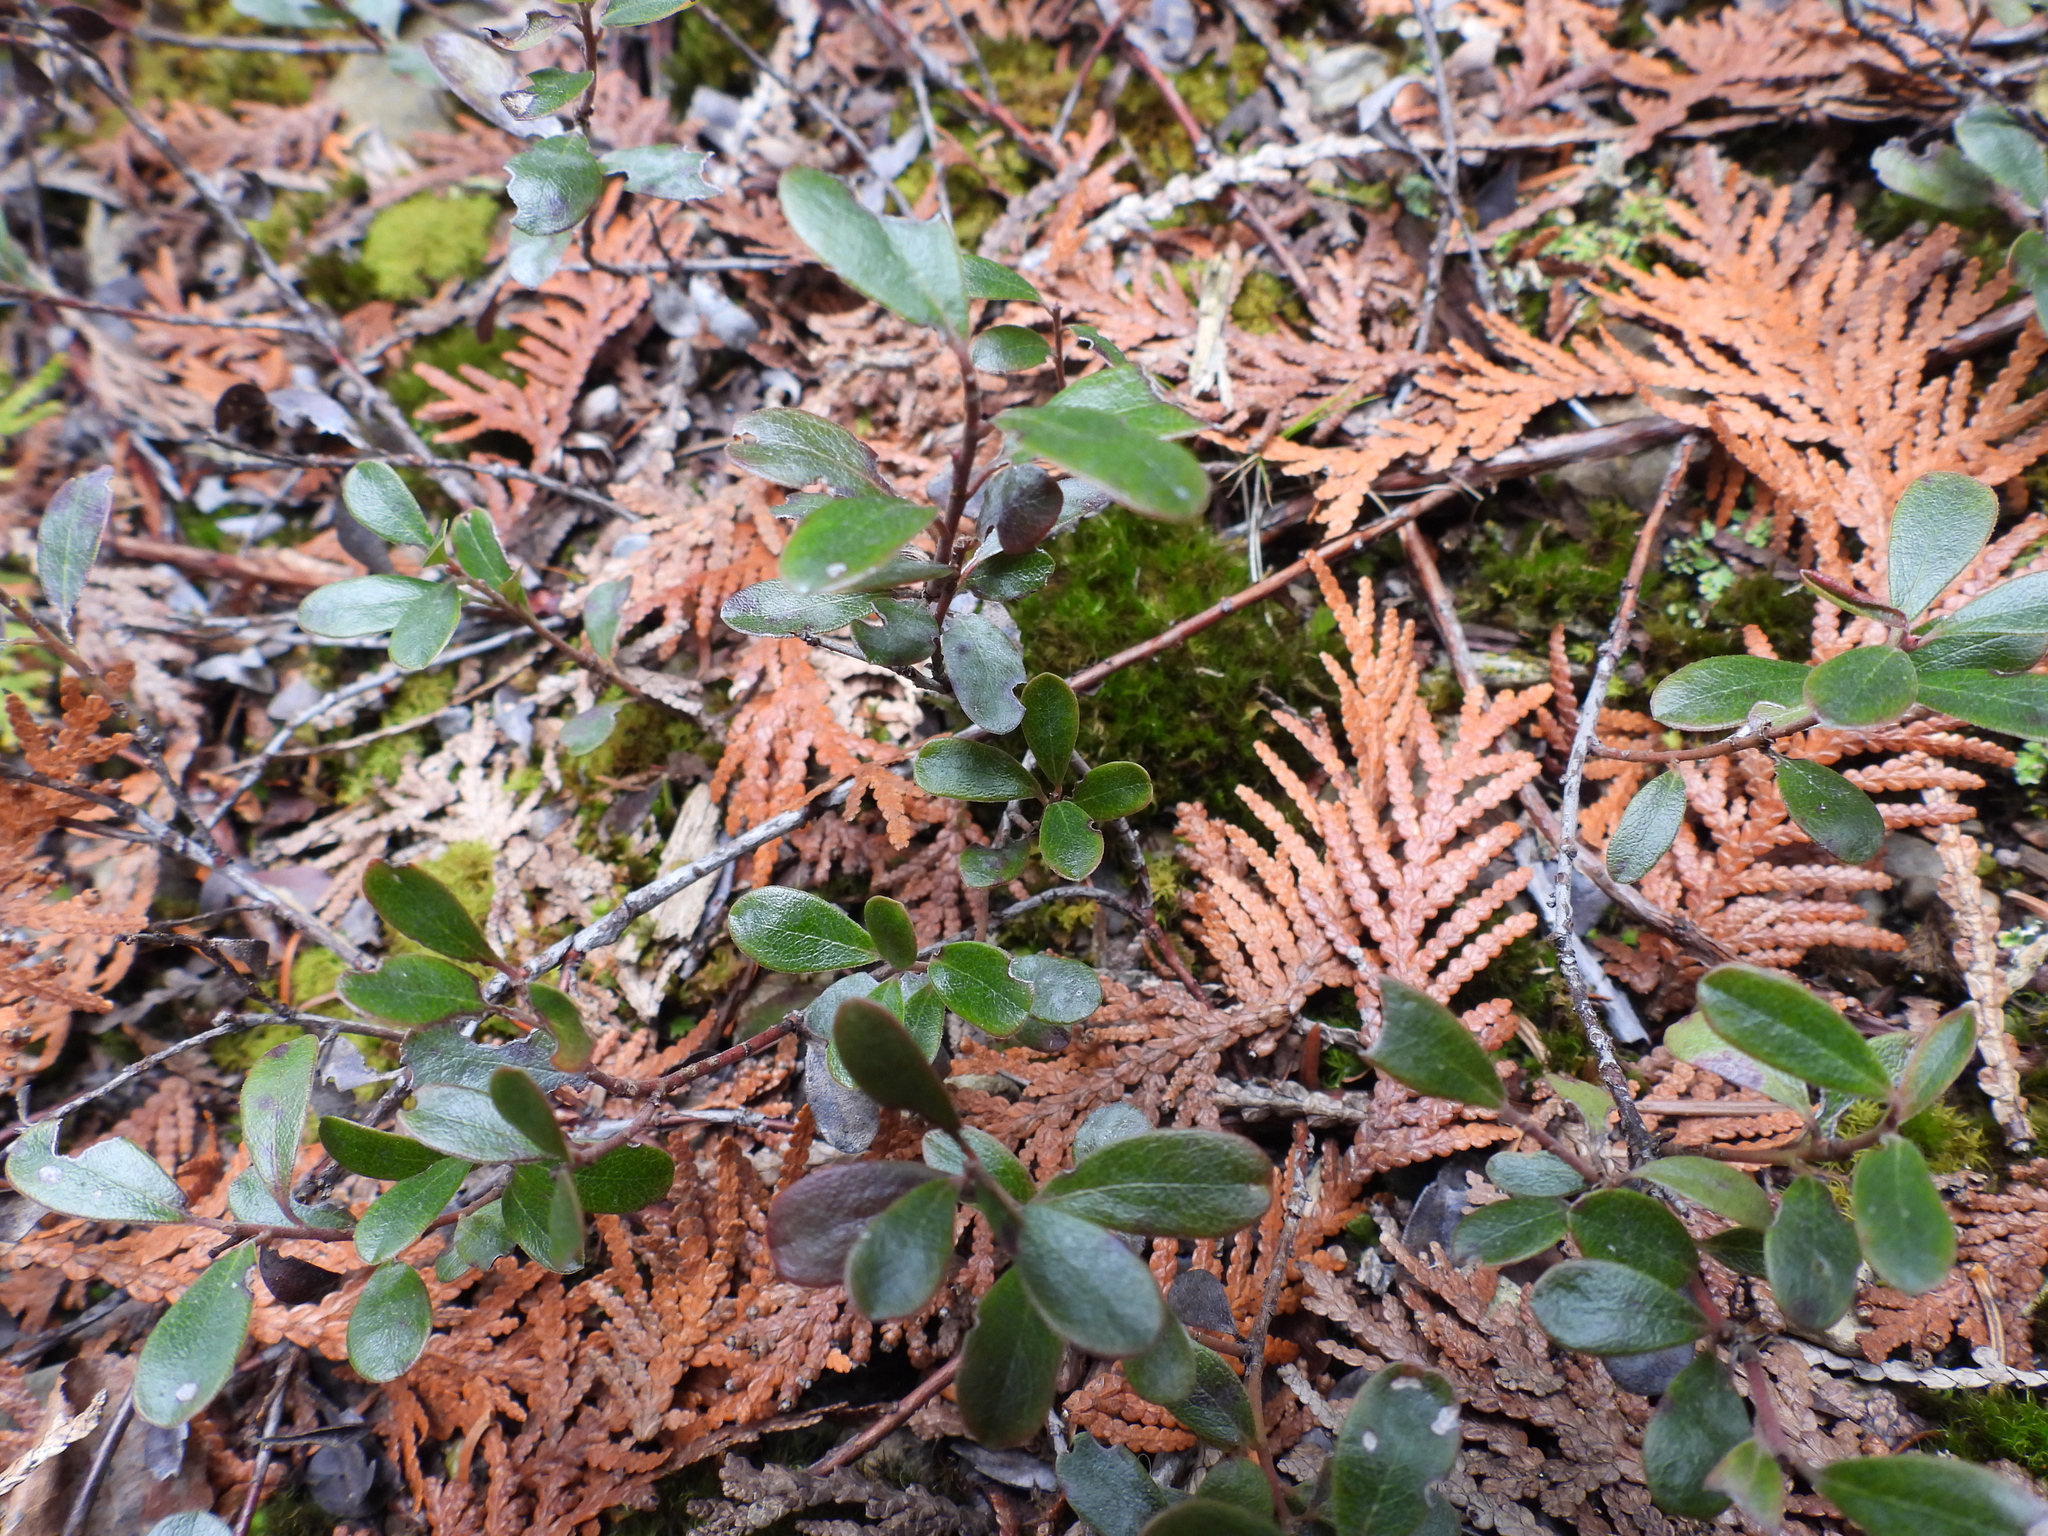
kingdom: Plantae
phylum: Tracheophyta
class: Magnoliopsida
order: Ericales
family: Ericaceae
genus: Arctostaphylos
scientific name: Arctostaphylos uva-ursi
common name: Bearberry
